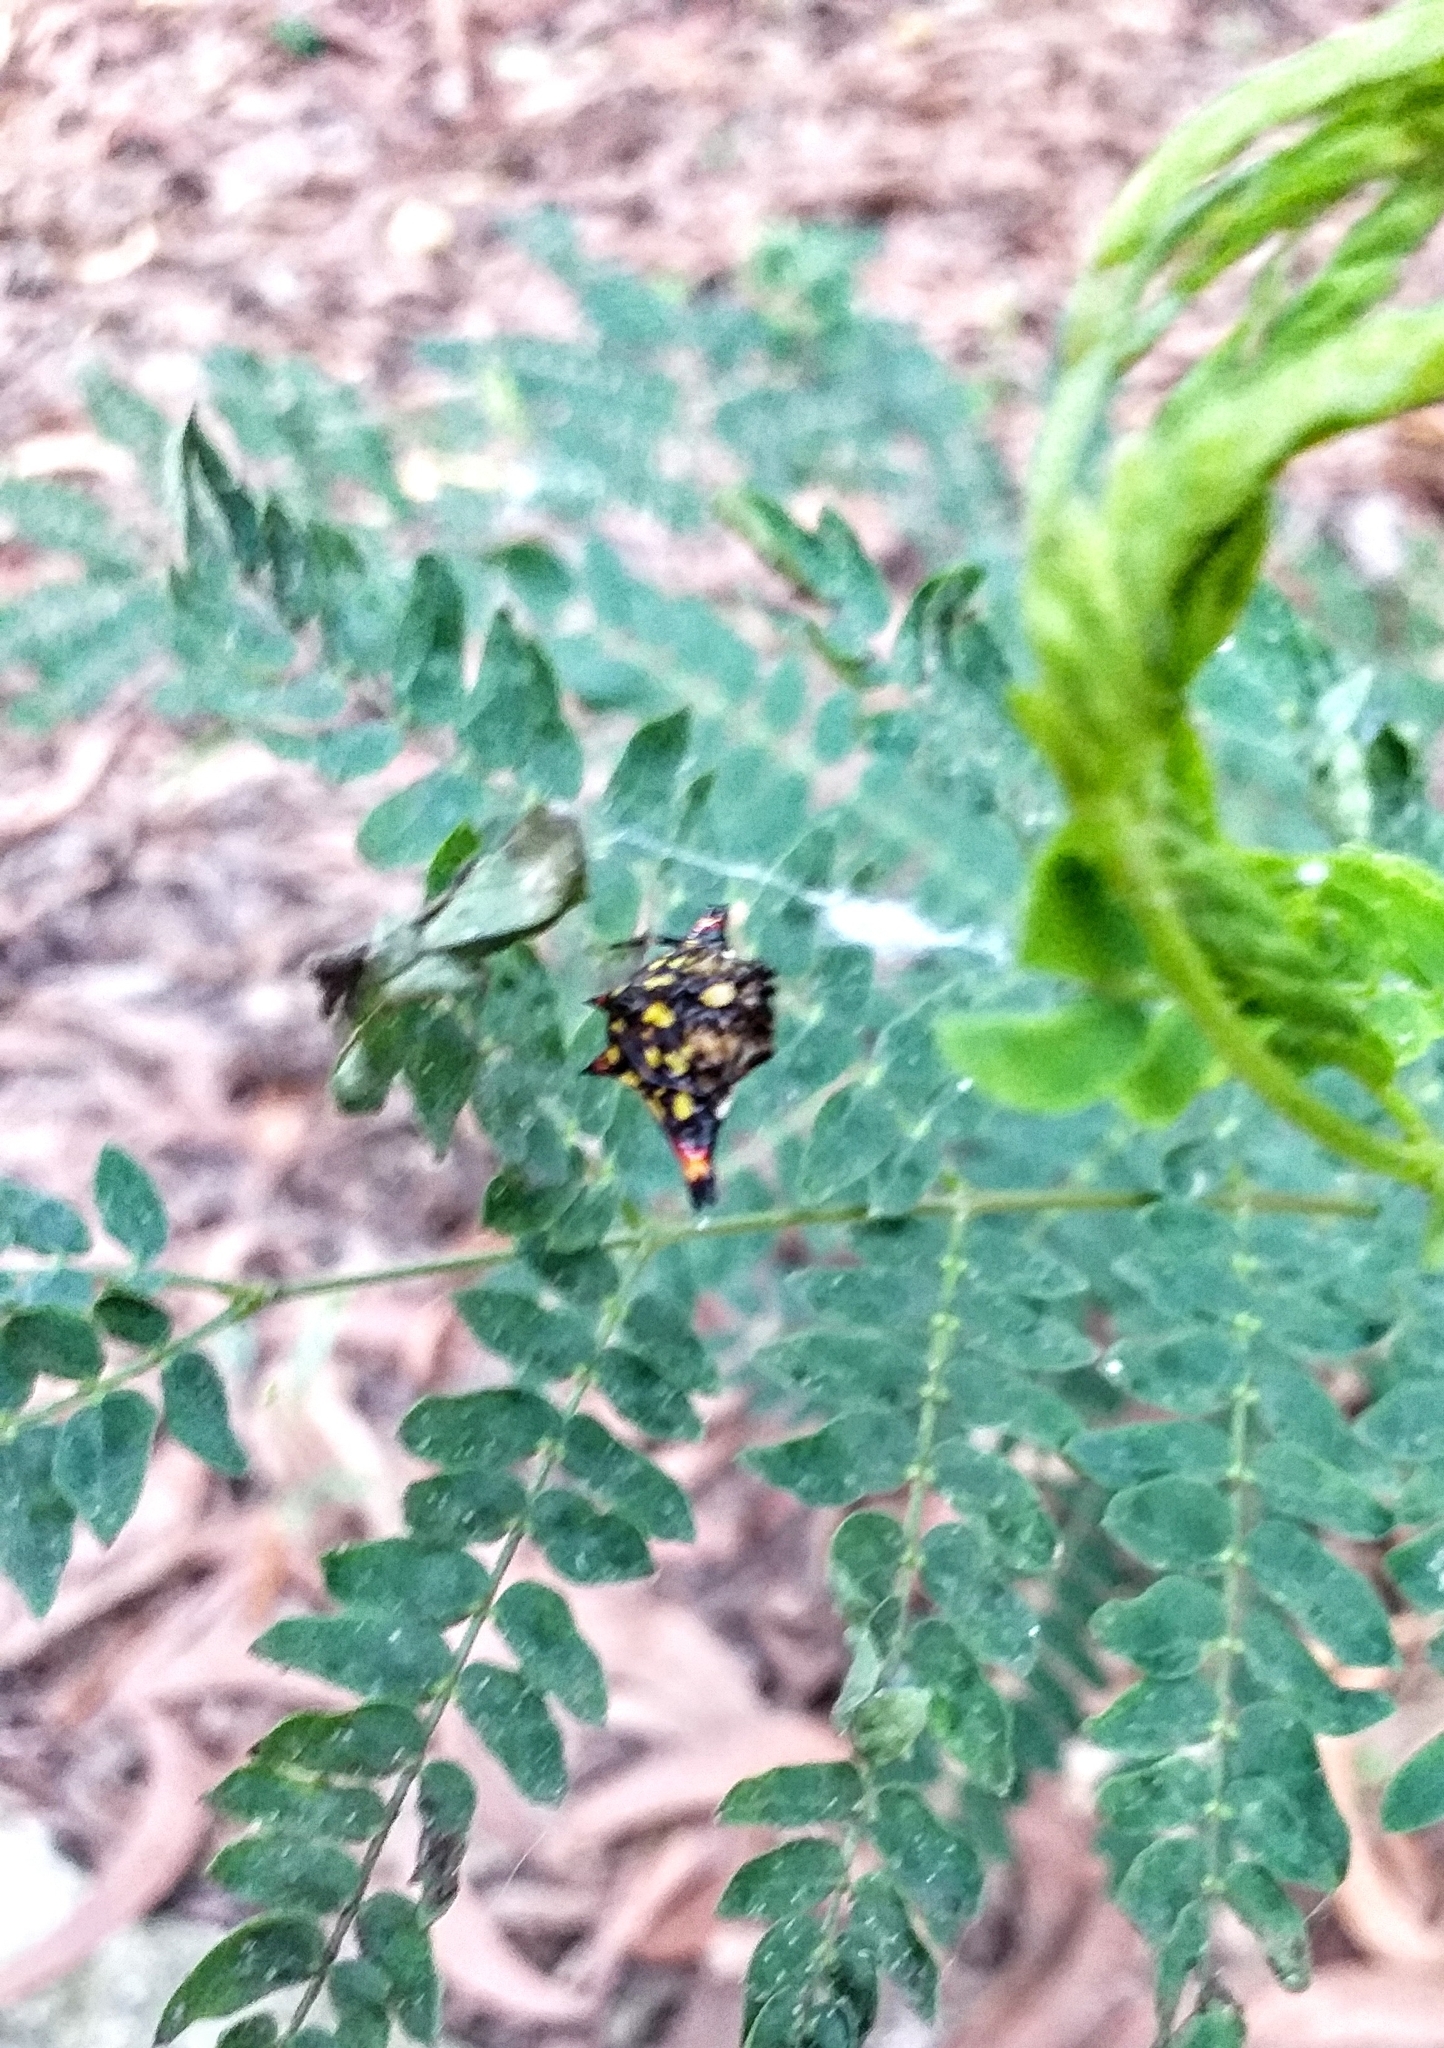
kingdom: Animalia
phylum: Arthropoda
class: Arachnida
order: Araneae
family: Araneidae
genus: Gasteracantha
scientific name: Gasteracantha geminata
